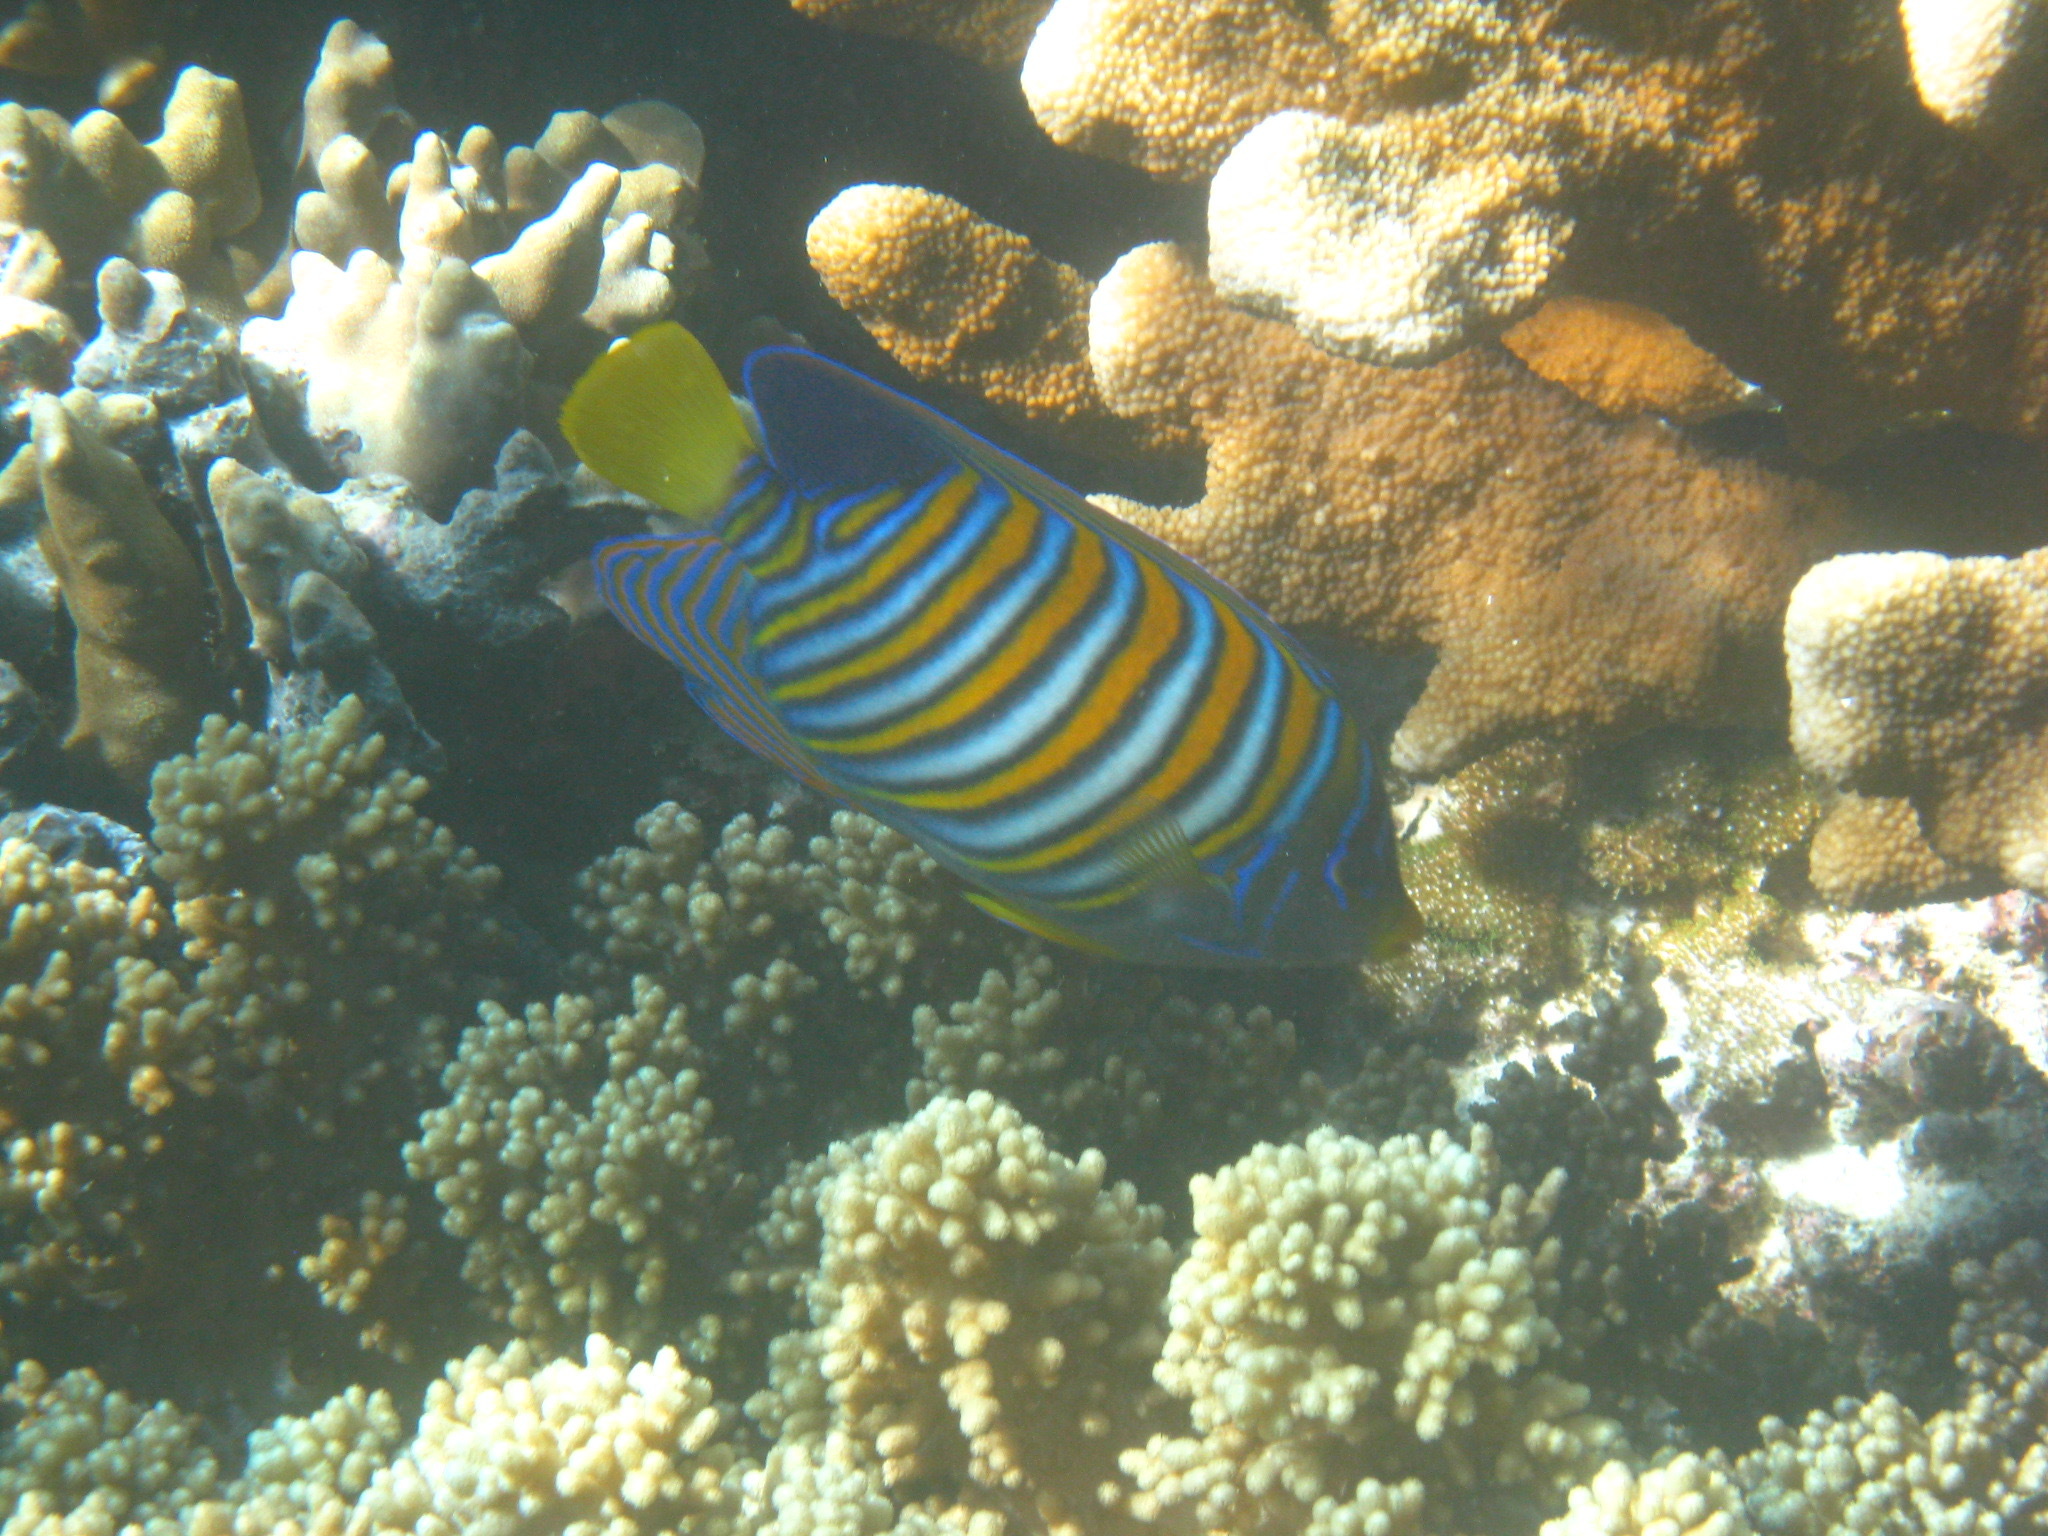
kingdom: Animalia
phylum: Chordata
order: Perciformes
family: Pomacanthidae
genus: Pygoplites
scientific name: Pygoplites diacanthus
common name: Regal angelfish
